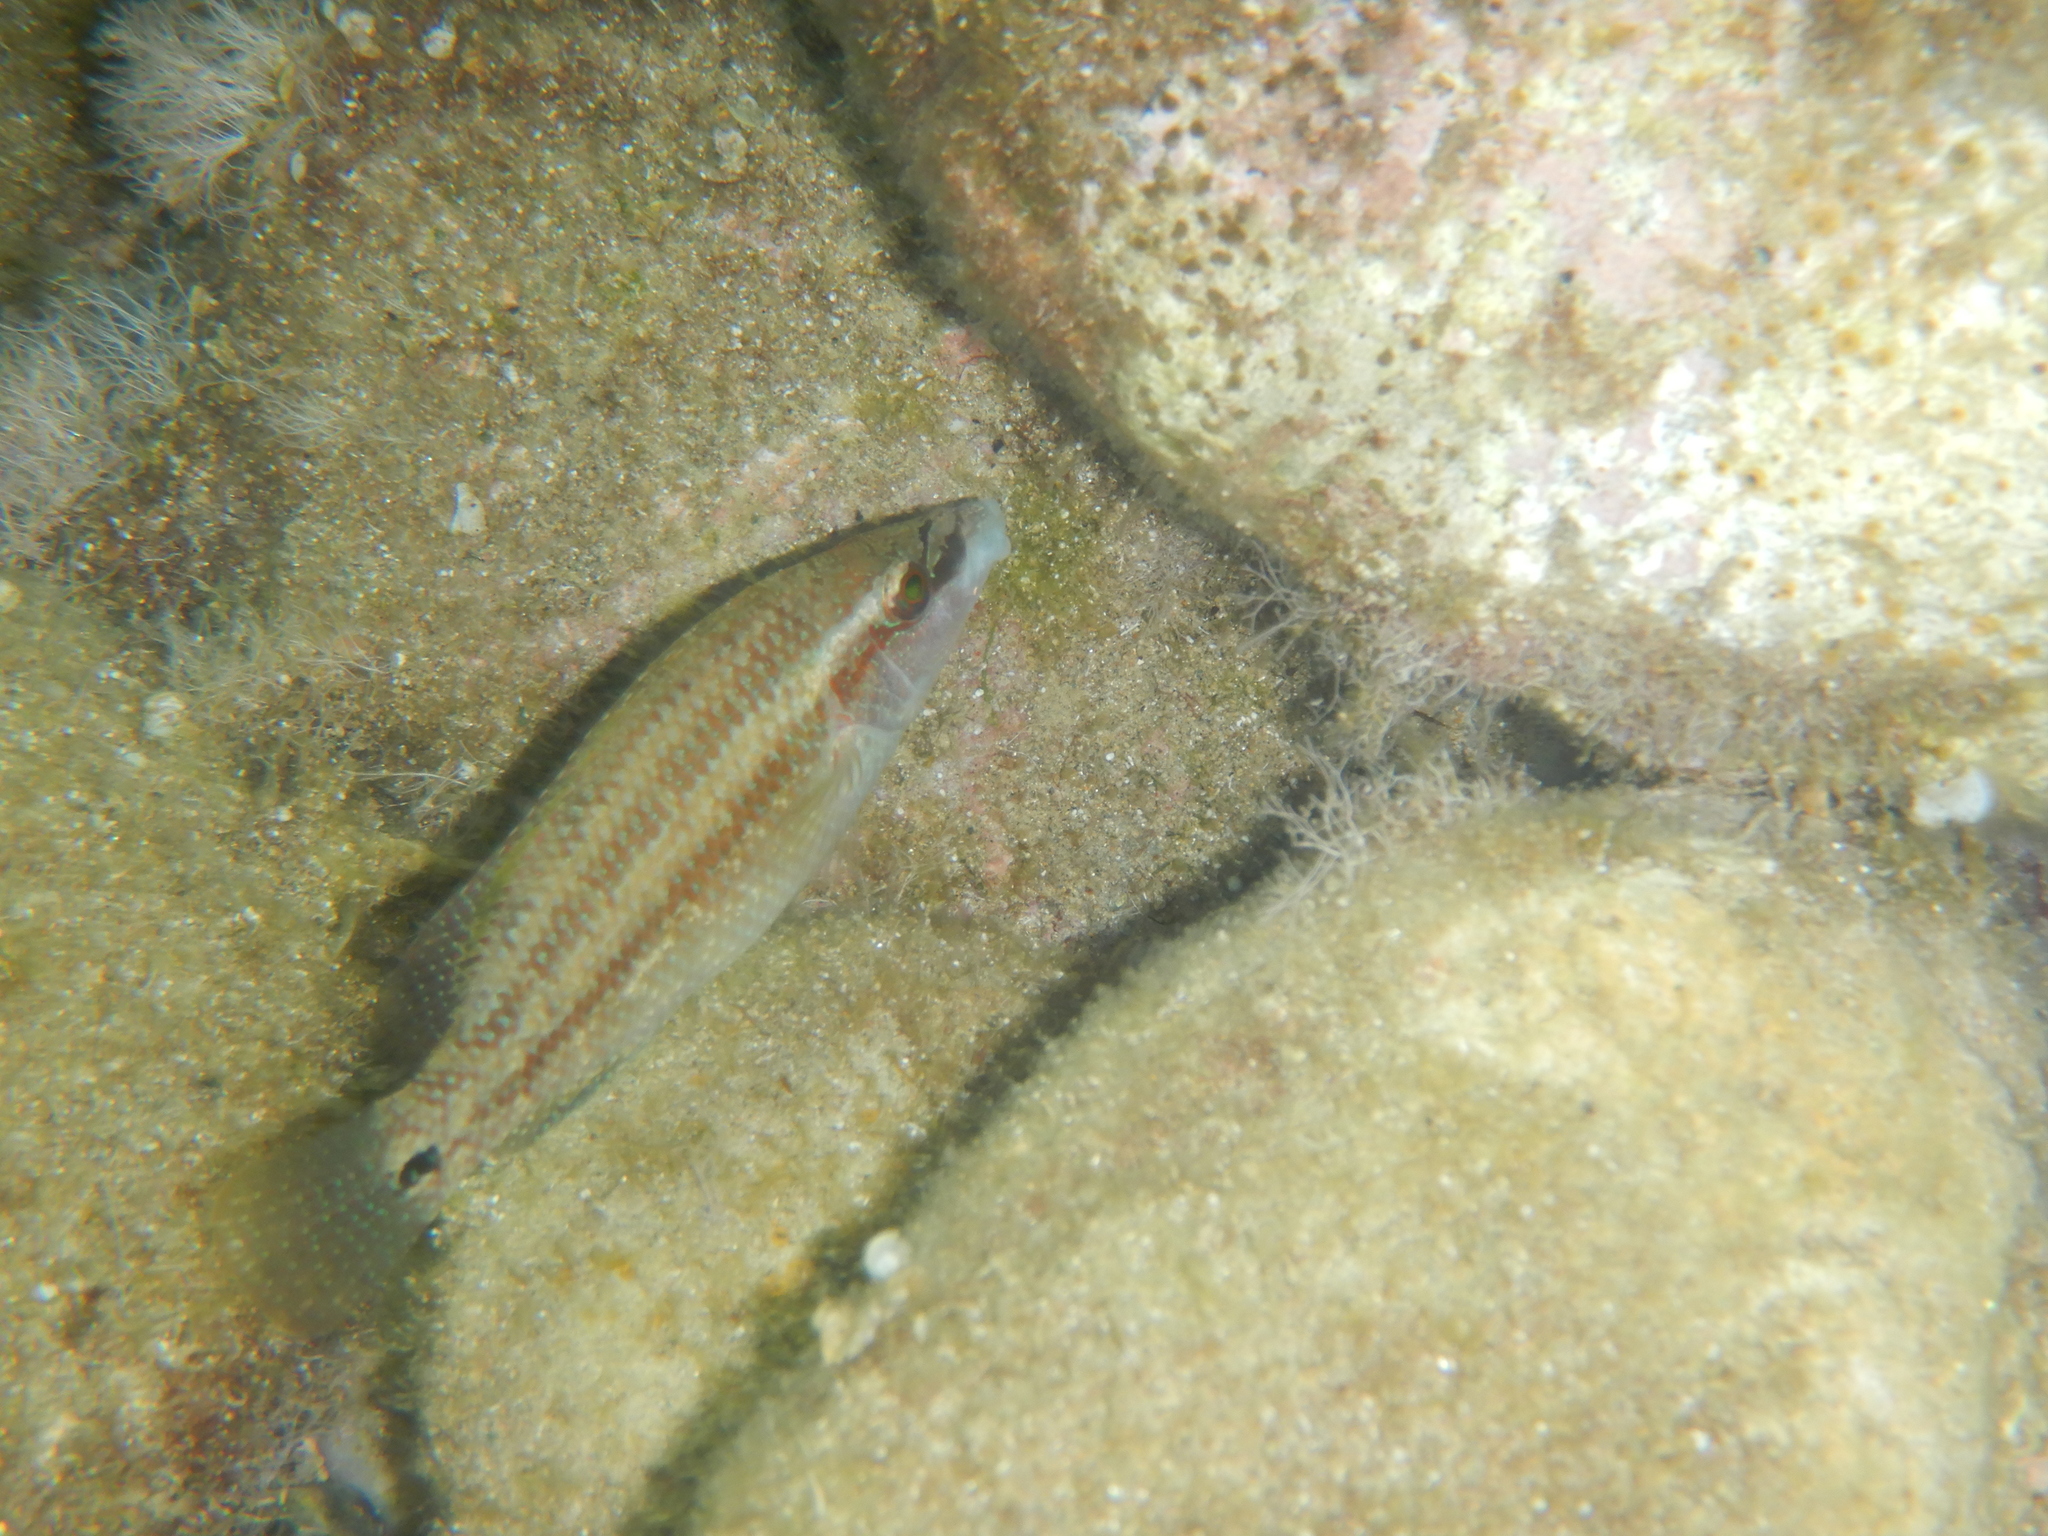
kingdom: Animalia
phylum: Chordata
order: Perciformes
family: Labridae
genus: Symphodus
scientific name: Symphodus tinca
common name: Peacock wrasse
